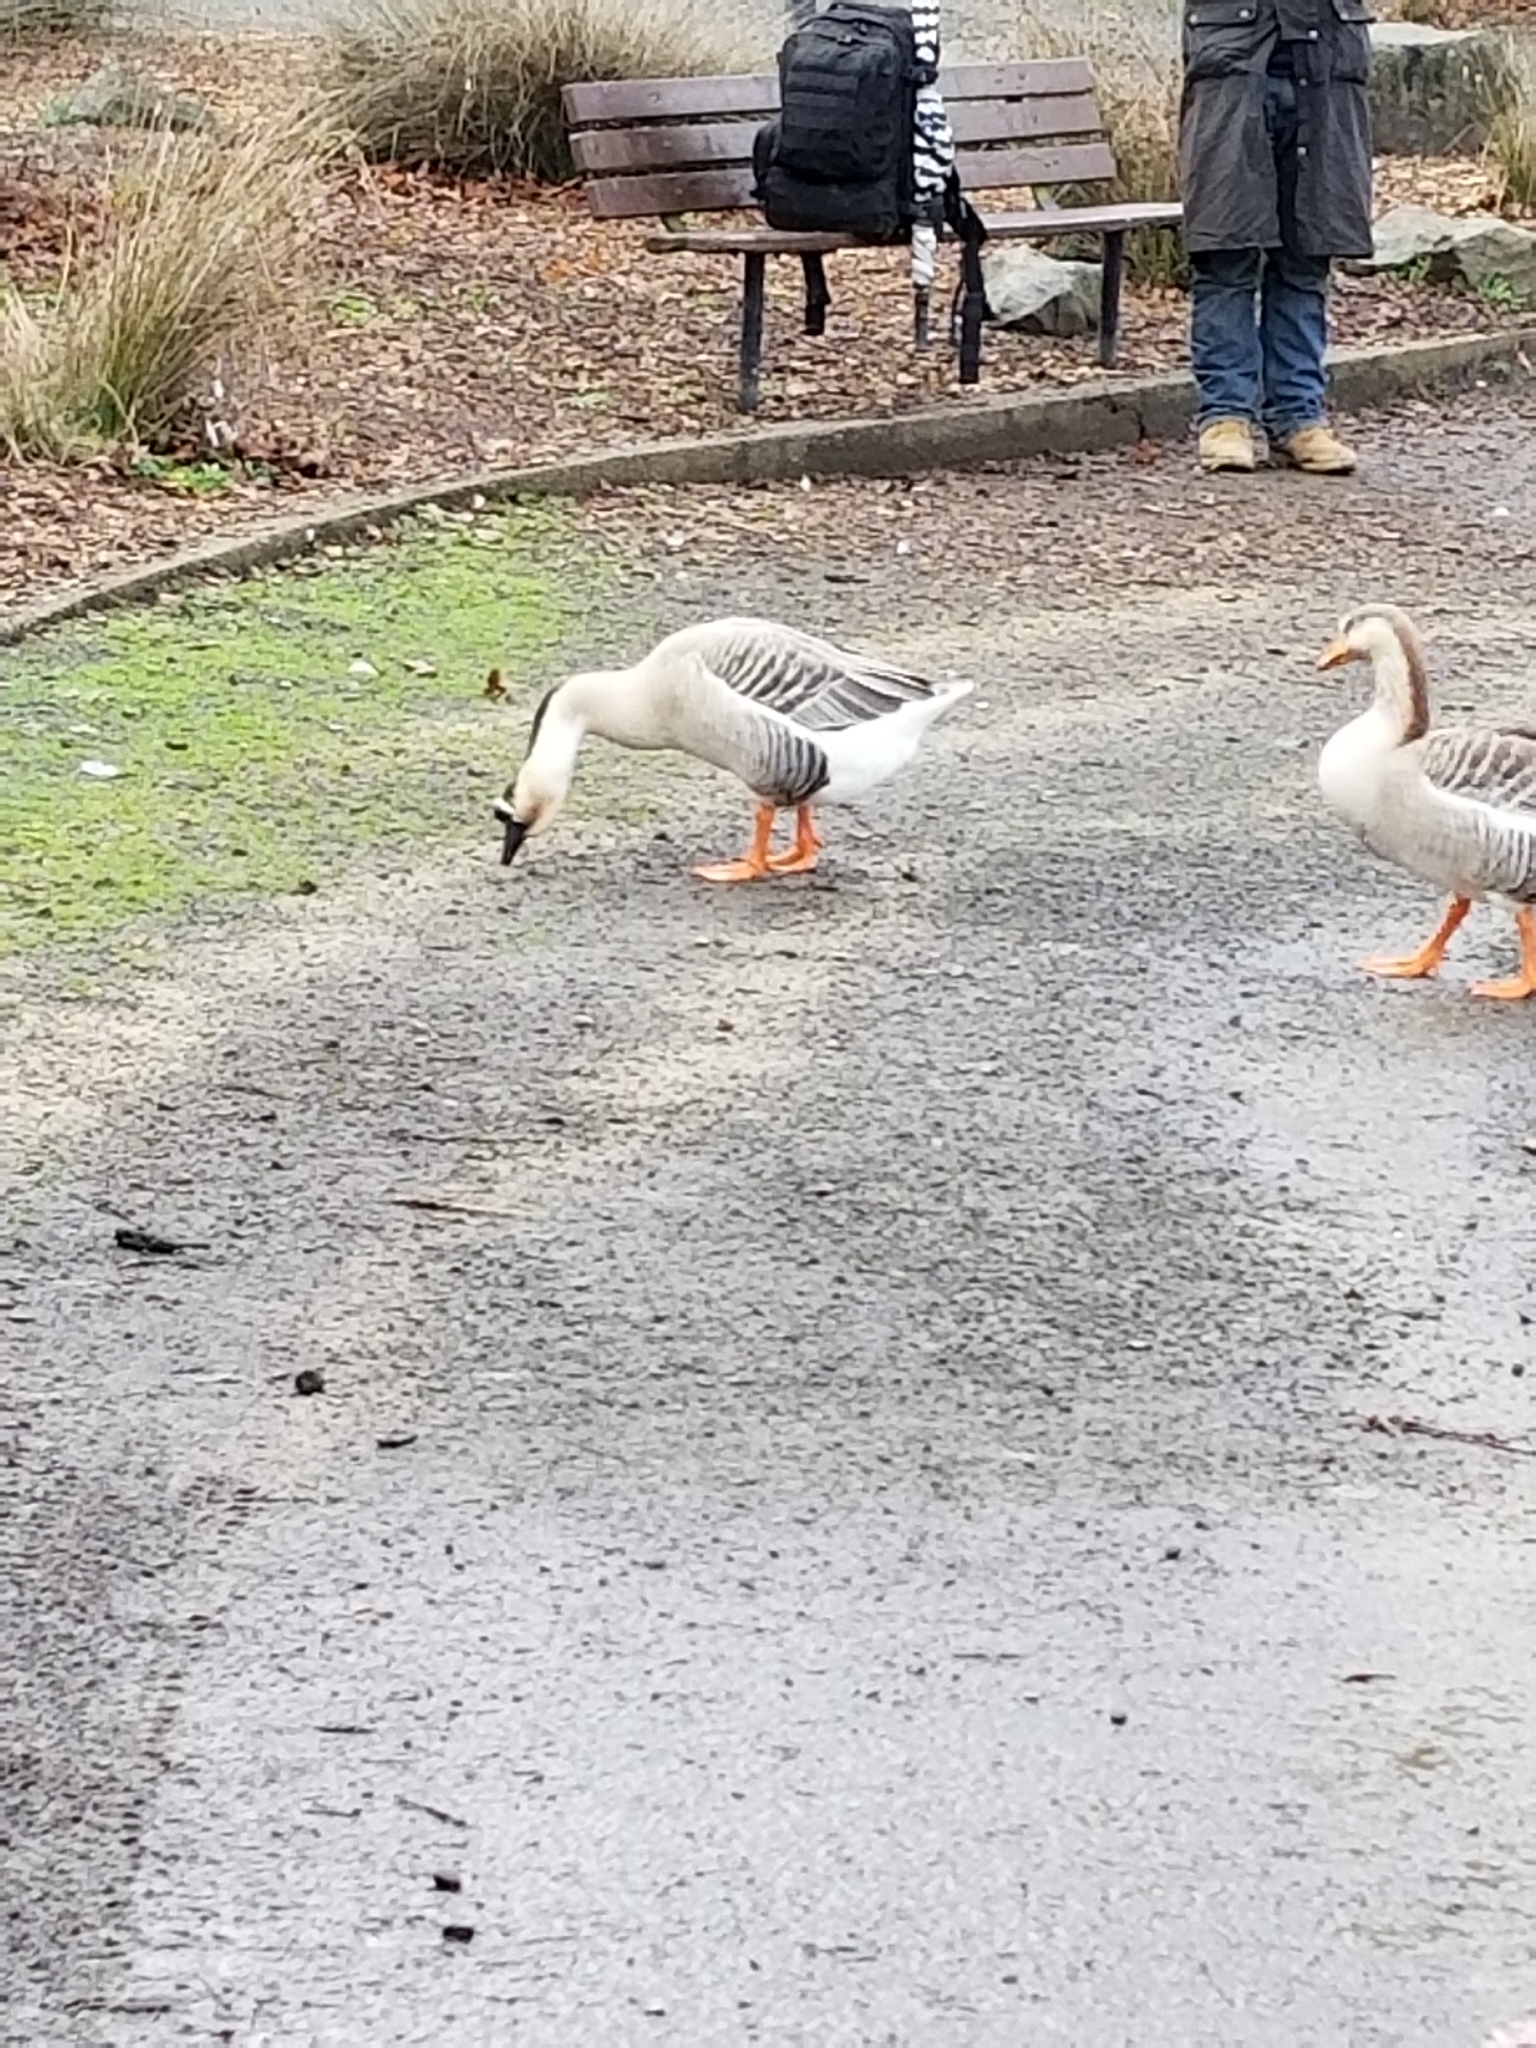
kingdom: Animalia
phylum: Chordata
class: Aves
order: Anseriformes
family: Anatidae
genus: Anser
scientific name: Anser cygnoides
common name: Swan goose
